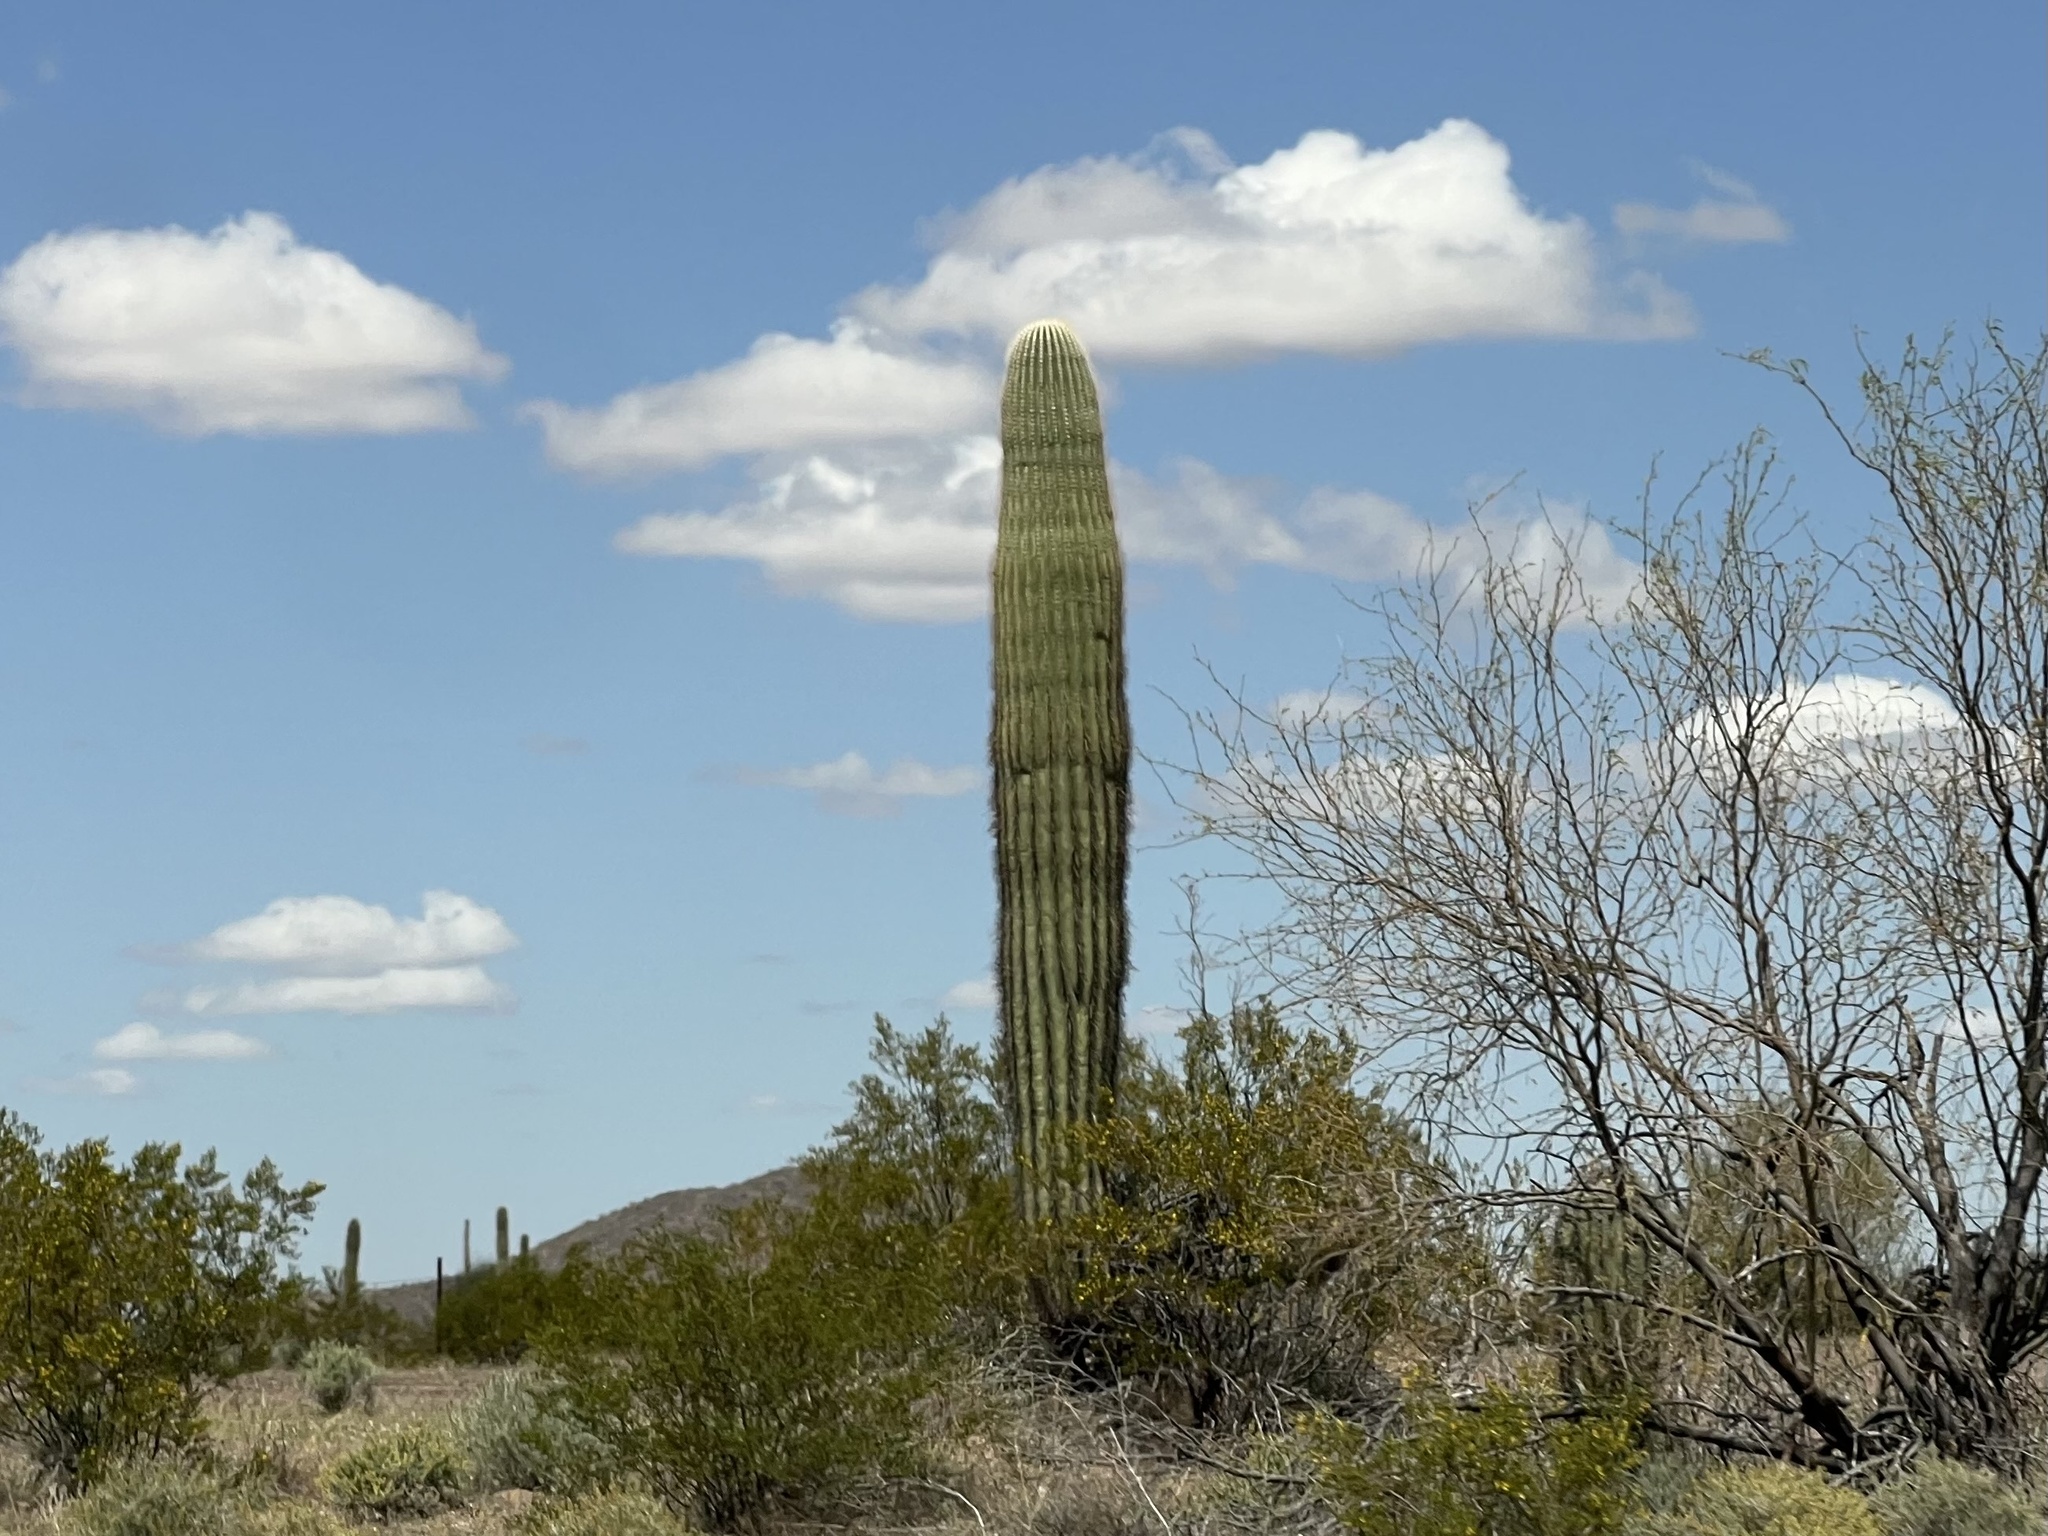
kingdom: Plantae
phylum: Tracheophyta
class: Magnoliopsida
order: Caryophyllales
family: Cactaceae
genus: Carnegiea
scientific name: Carnegiea gigantea
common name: Saguaro
